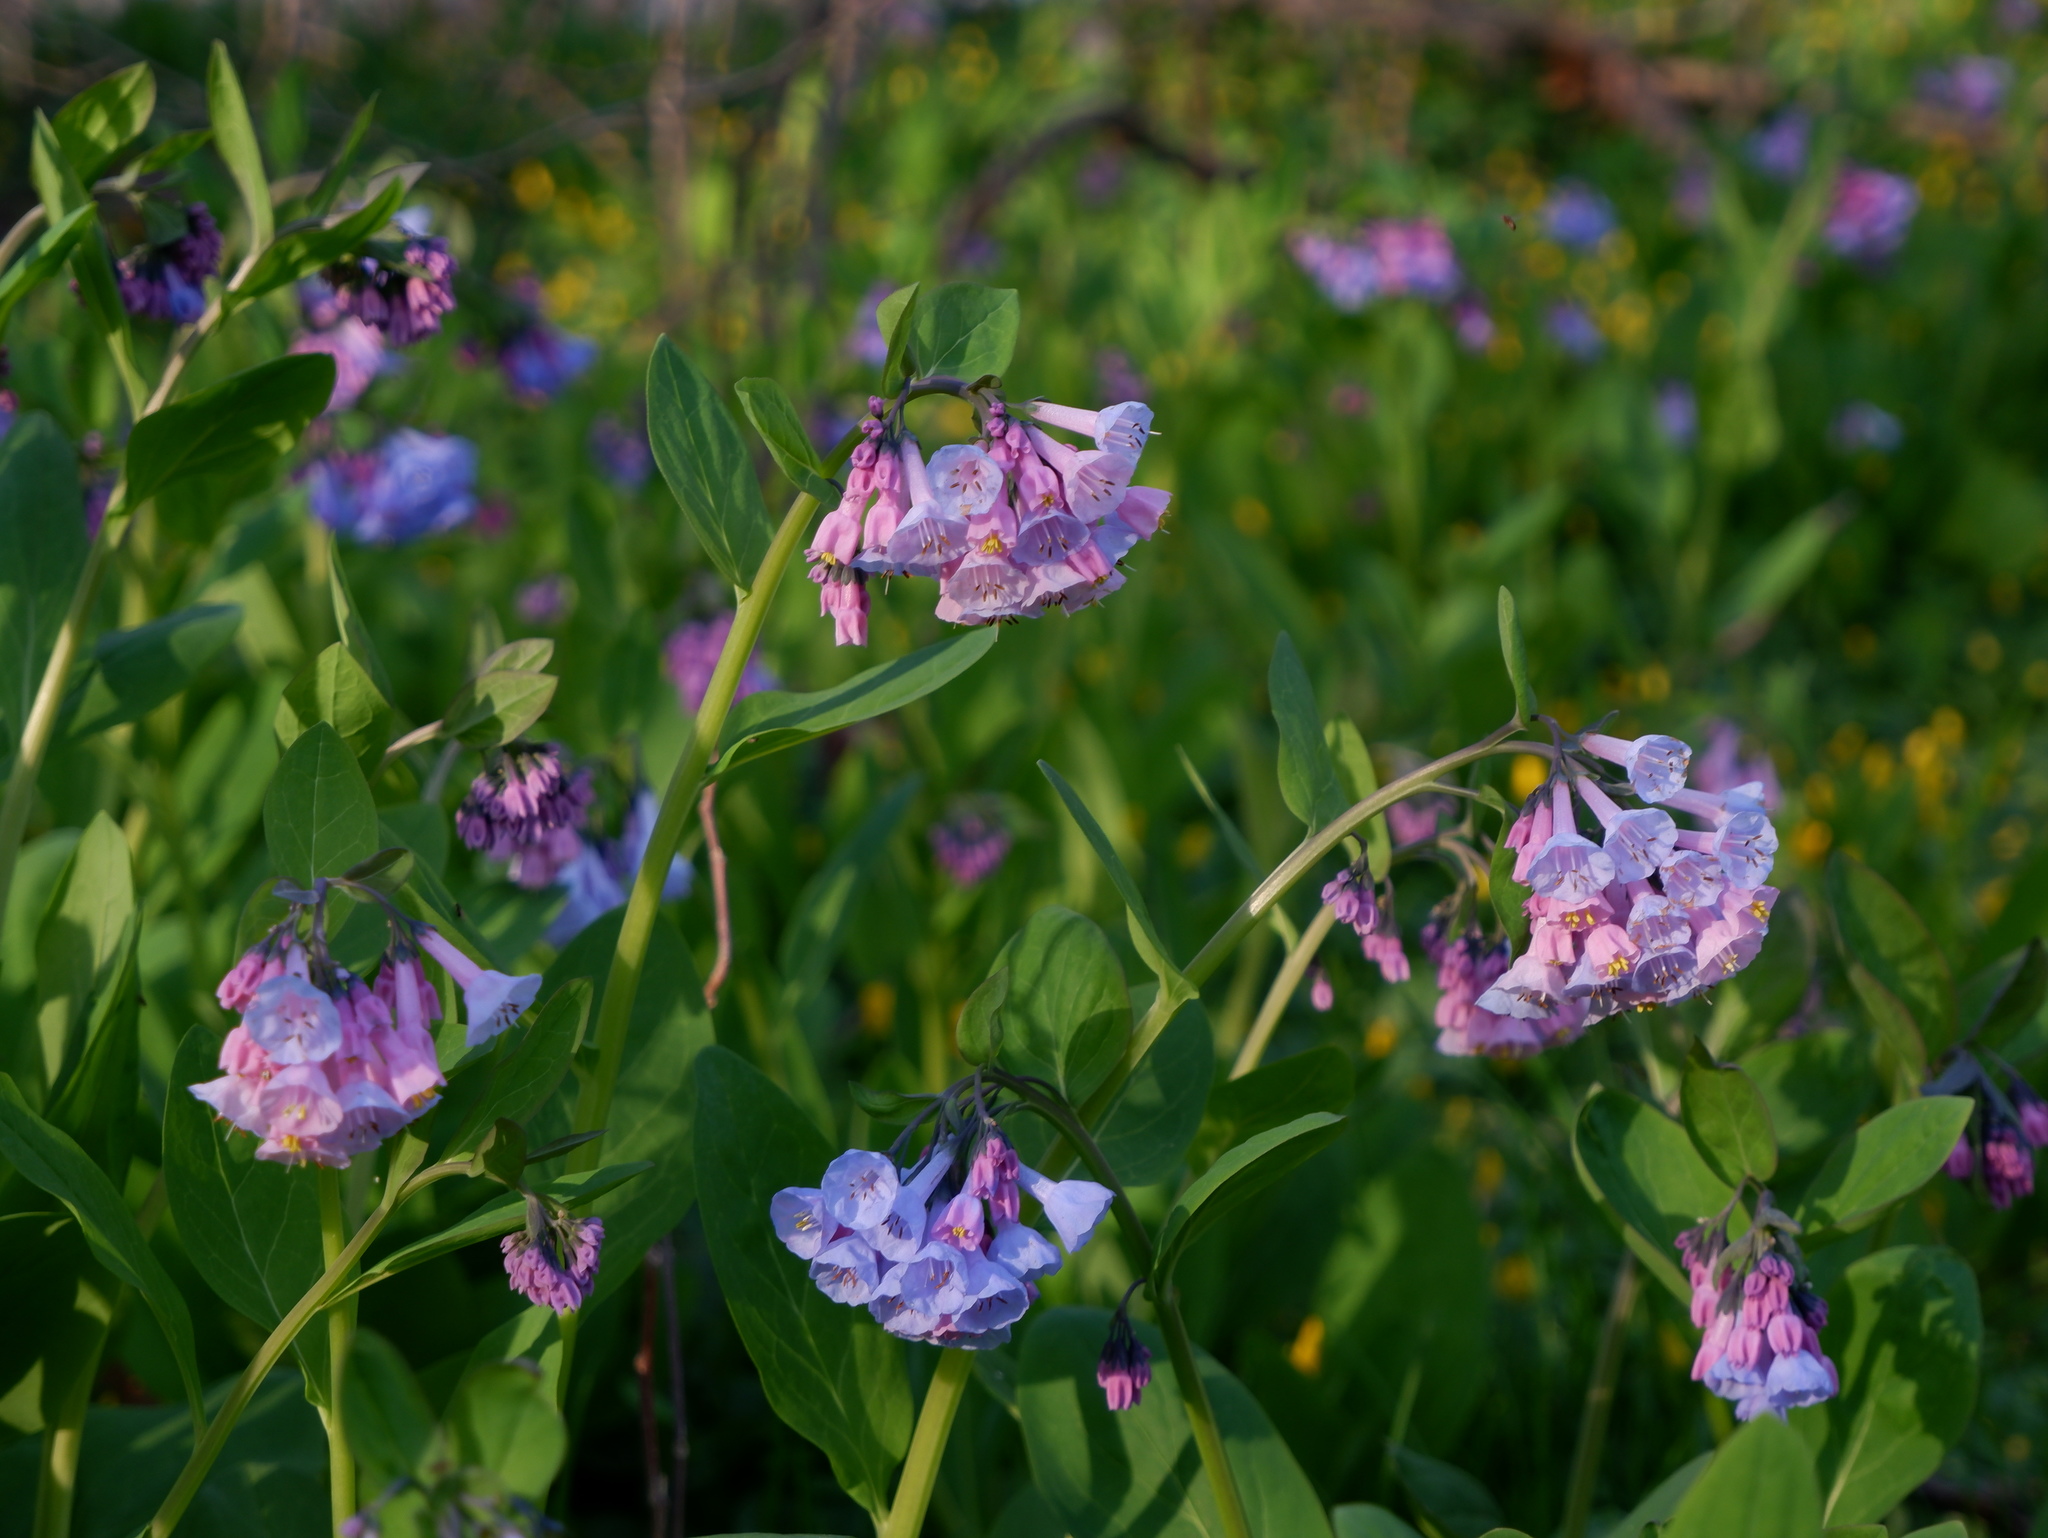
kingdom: Plantae
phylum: Tracheophyta
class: Magnoliopsida
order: Boraginales
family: Boraginaceae
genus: Mertensia
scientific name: Mertensia virginica
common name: Virginia bluebells
